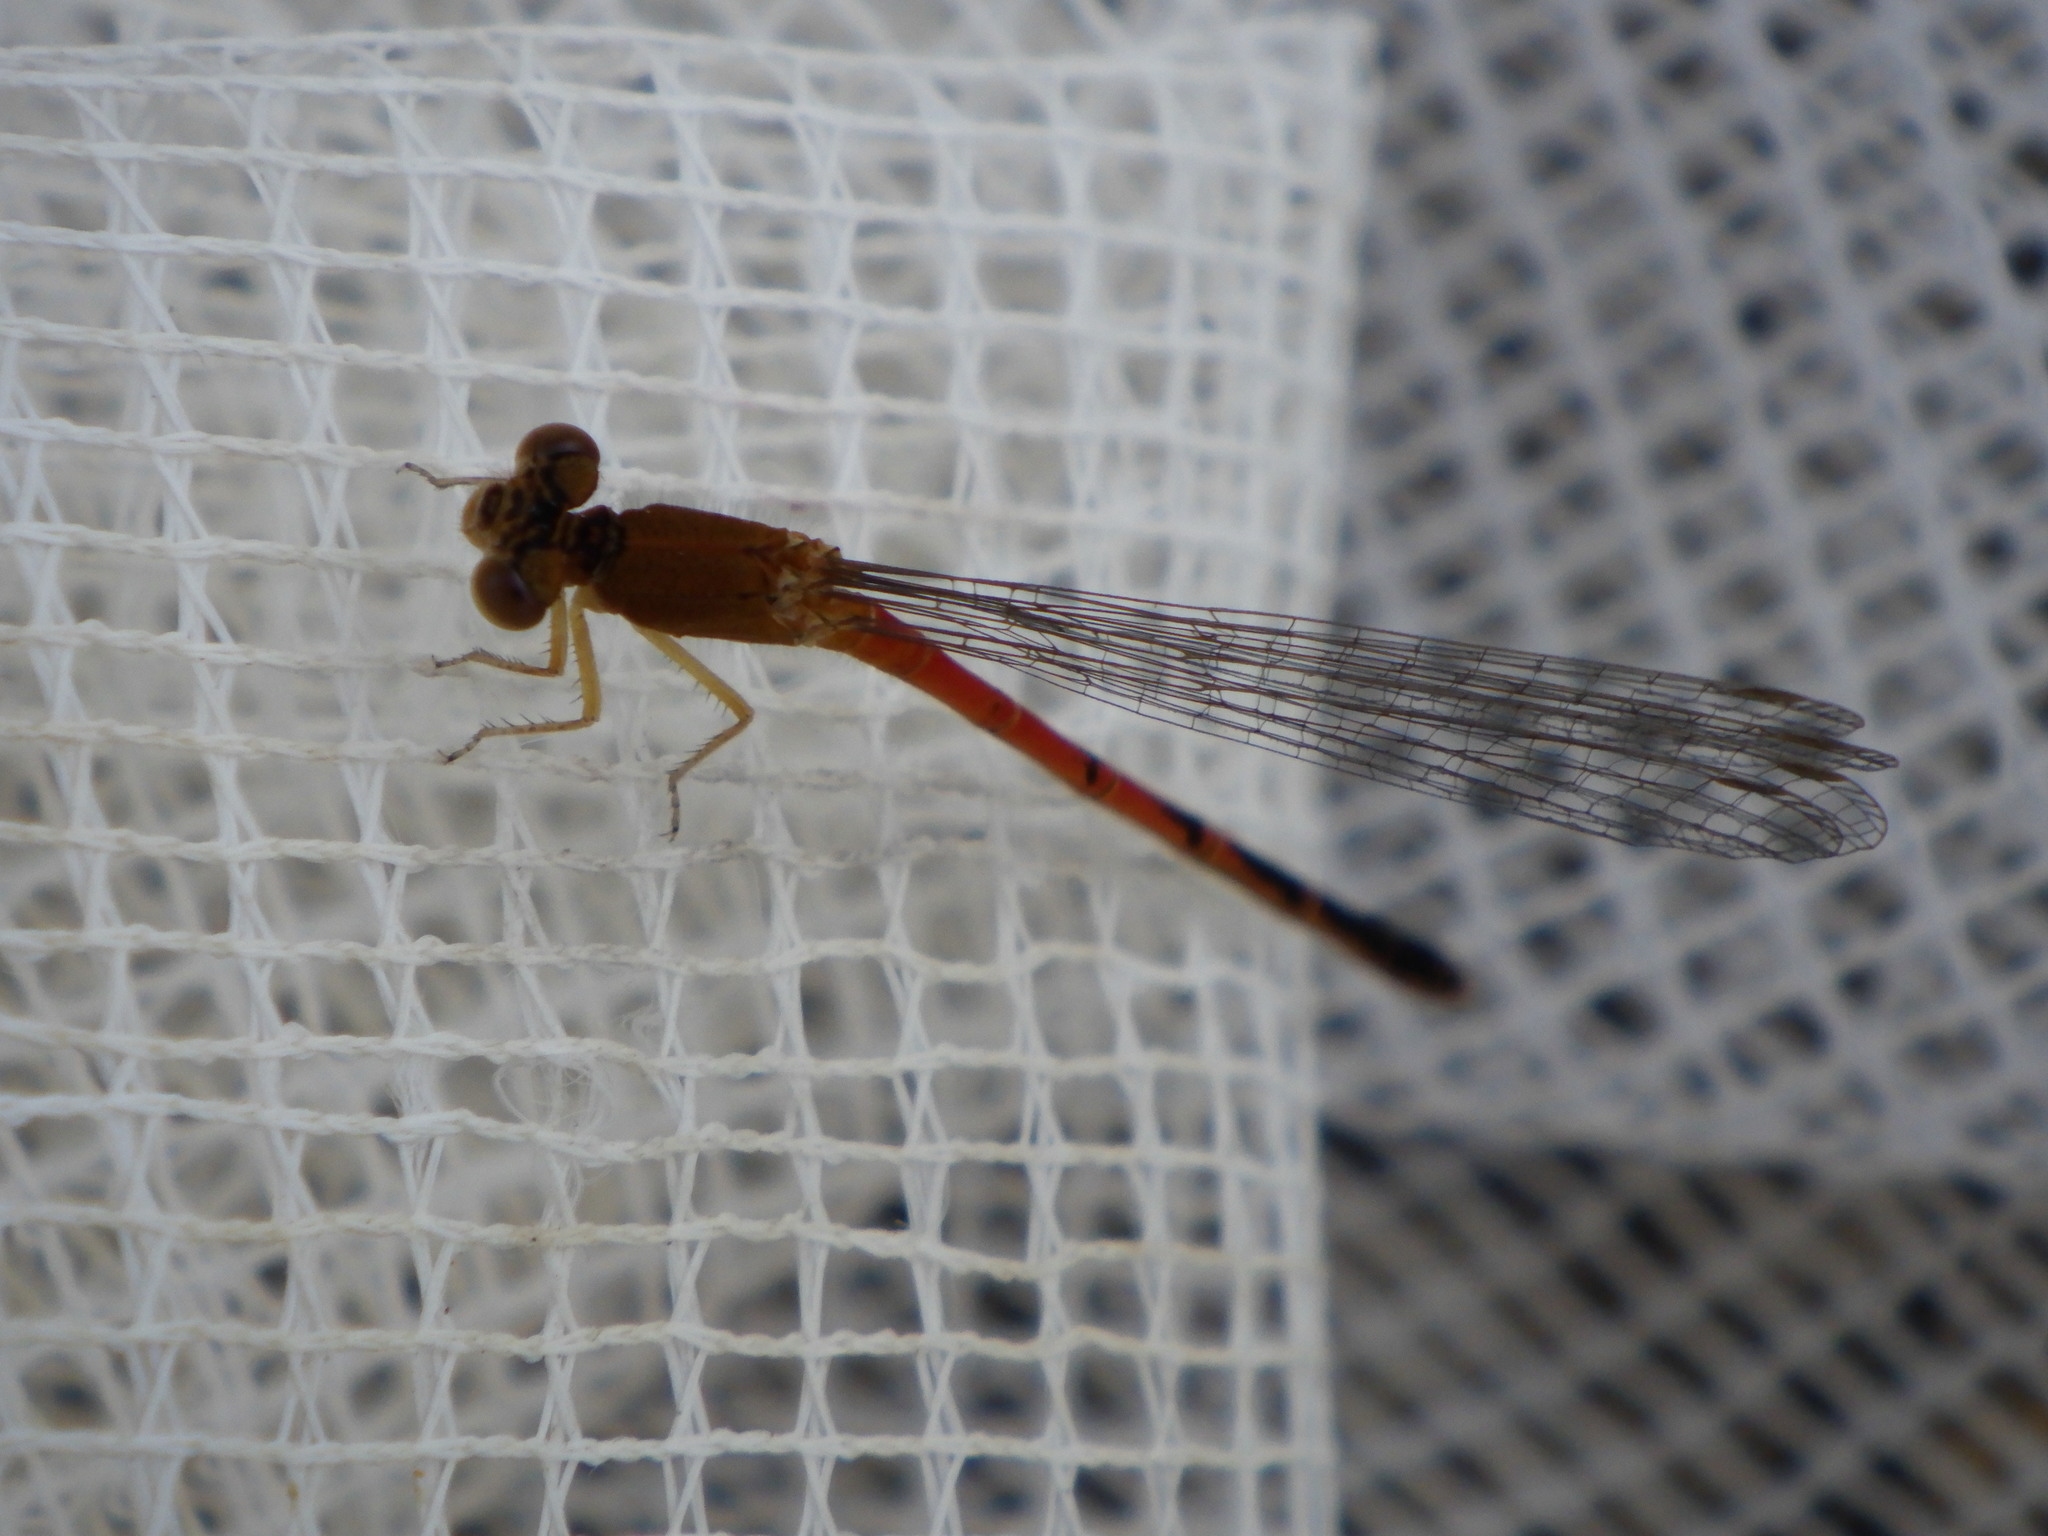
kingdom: Animalia
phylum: Arthropoda
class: Insecta
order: Odonata
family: Coenagrionidae
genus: Amphiagrion
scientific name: Amphiagrion saucium
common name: Eastern red damsel
